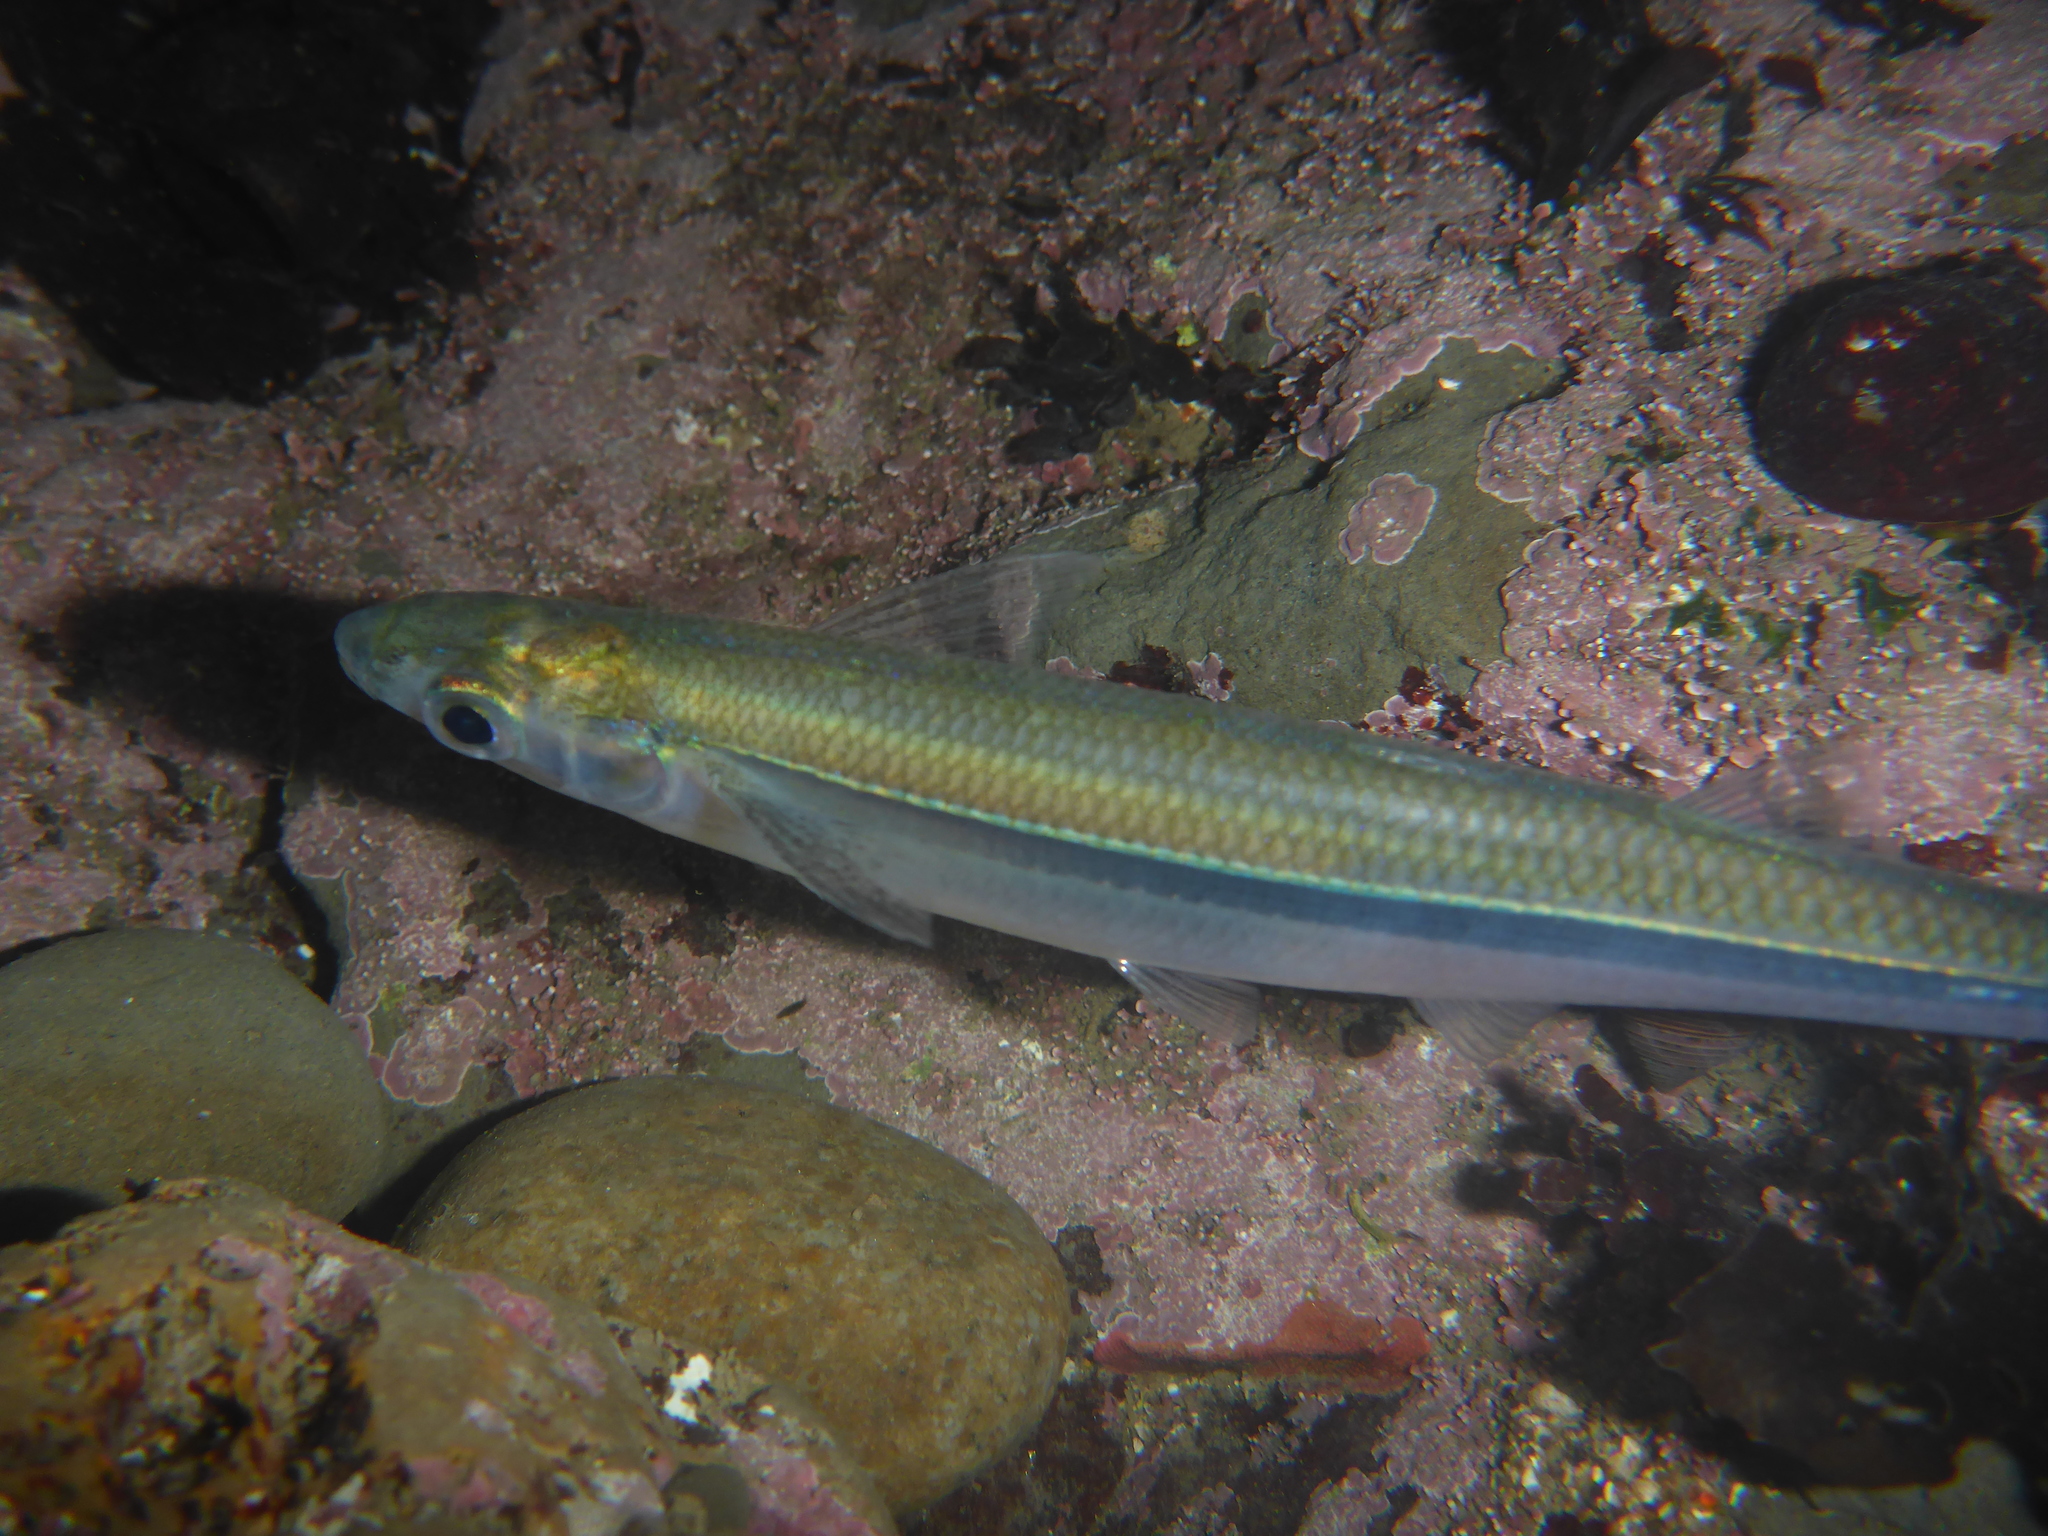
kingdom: Animalia
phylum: Chordata
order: Atheriniformes
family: Atherinopsidae
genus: Atherinops
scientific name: Atherinops affinis
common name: Topsmelt
